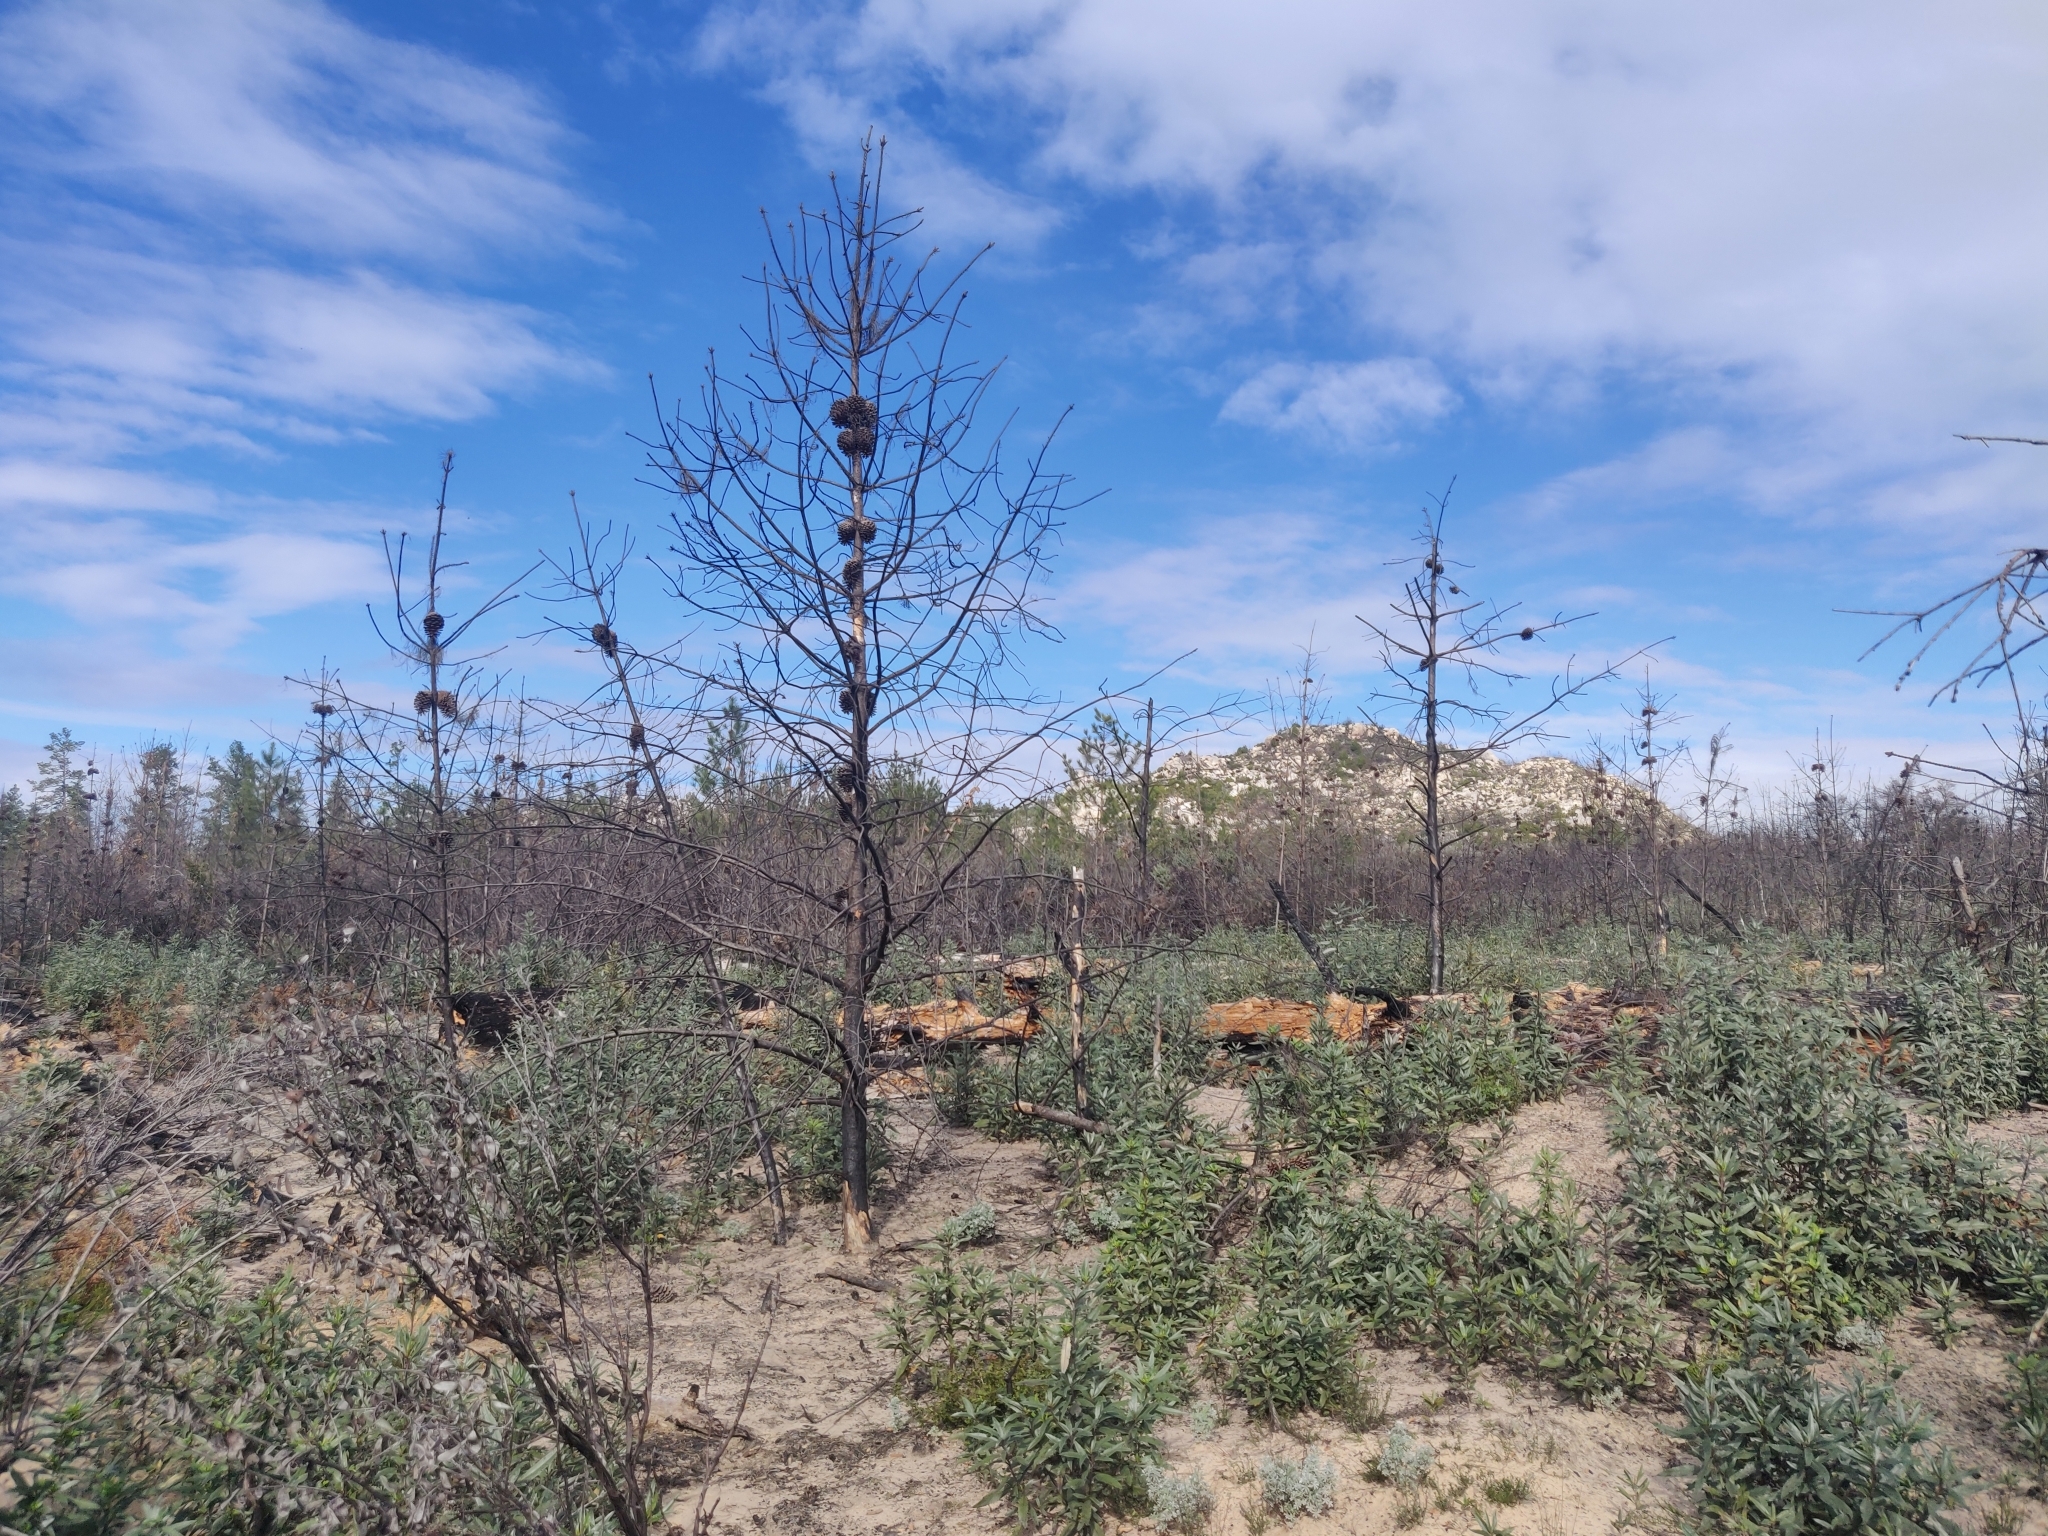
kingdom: Plantae
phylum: Tracheophyta
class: Magnoliopsida
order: Fabales
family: Fabaceae
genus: Acmispon
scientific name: Acmispon glaber
